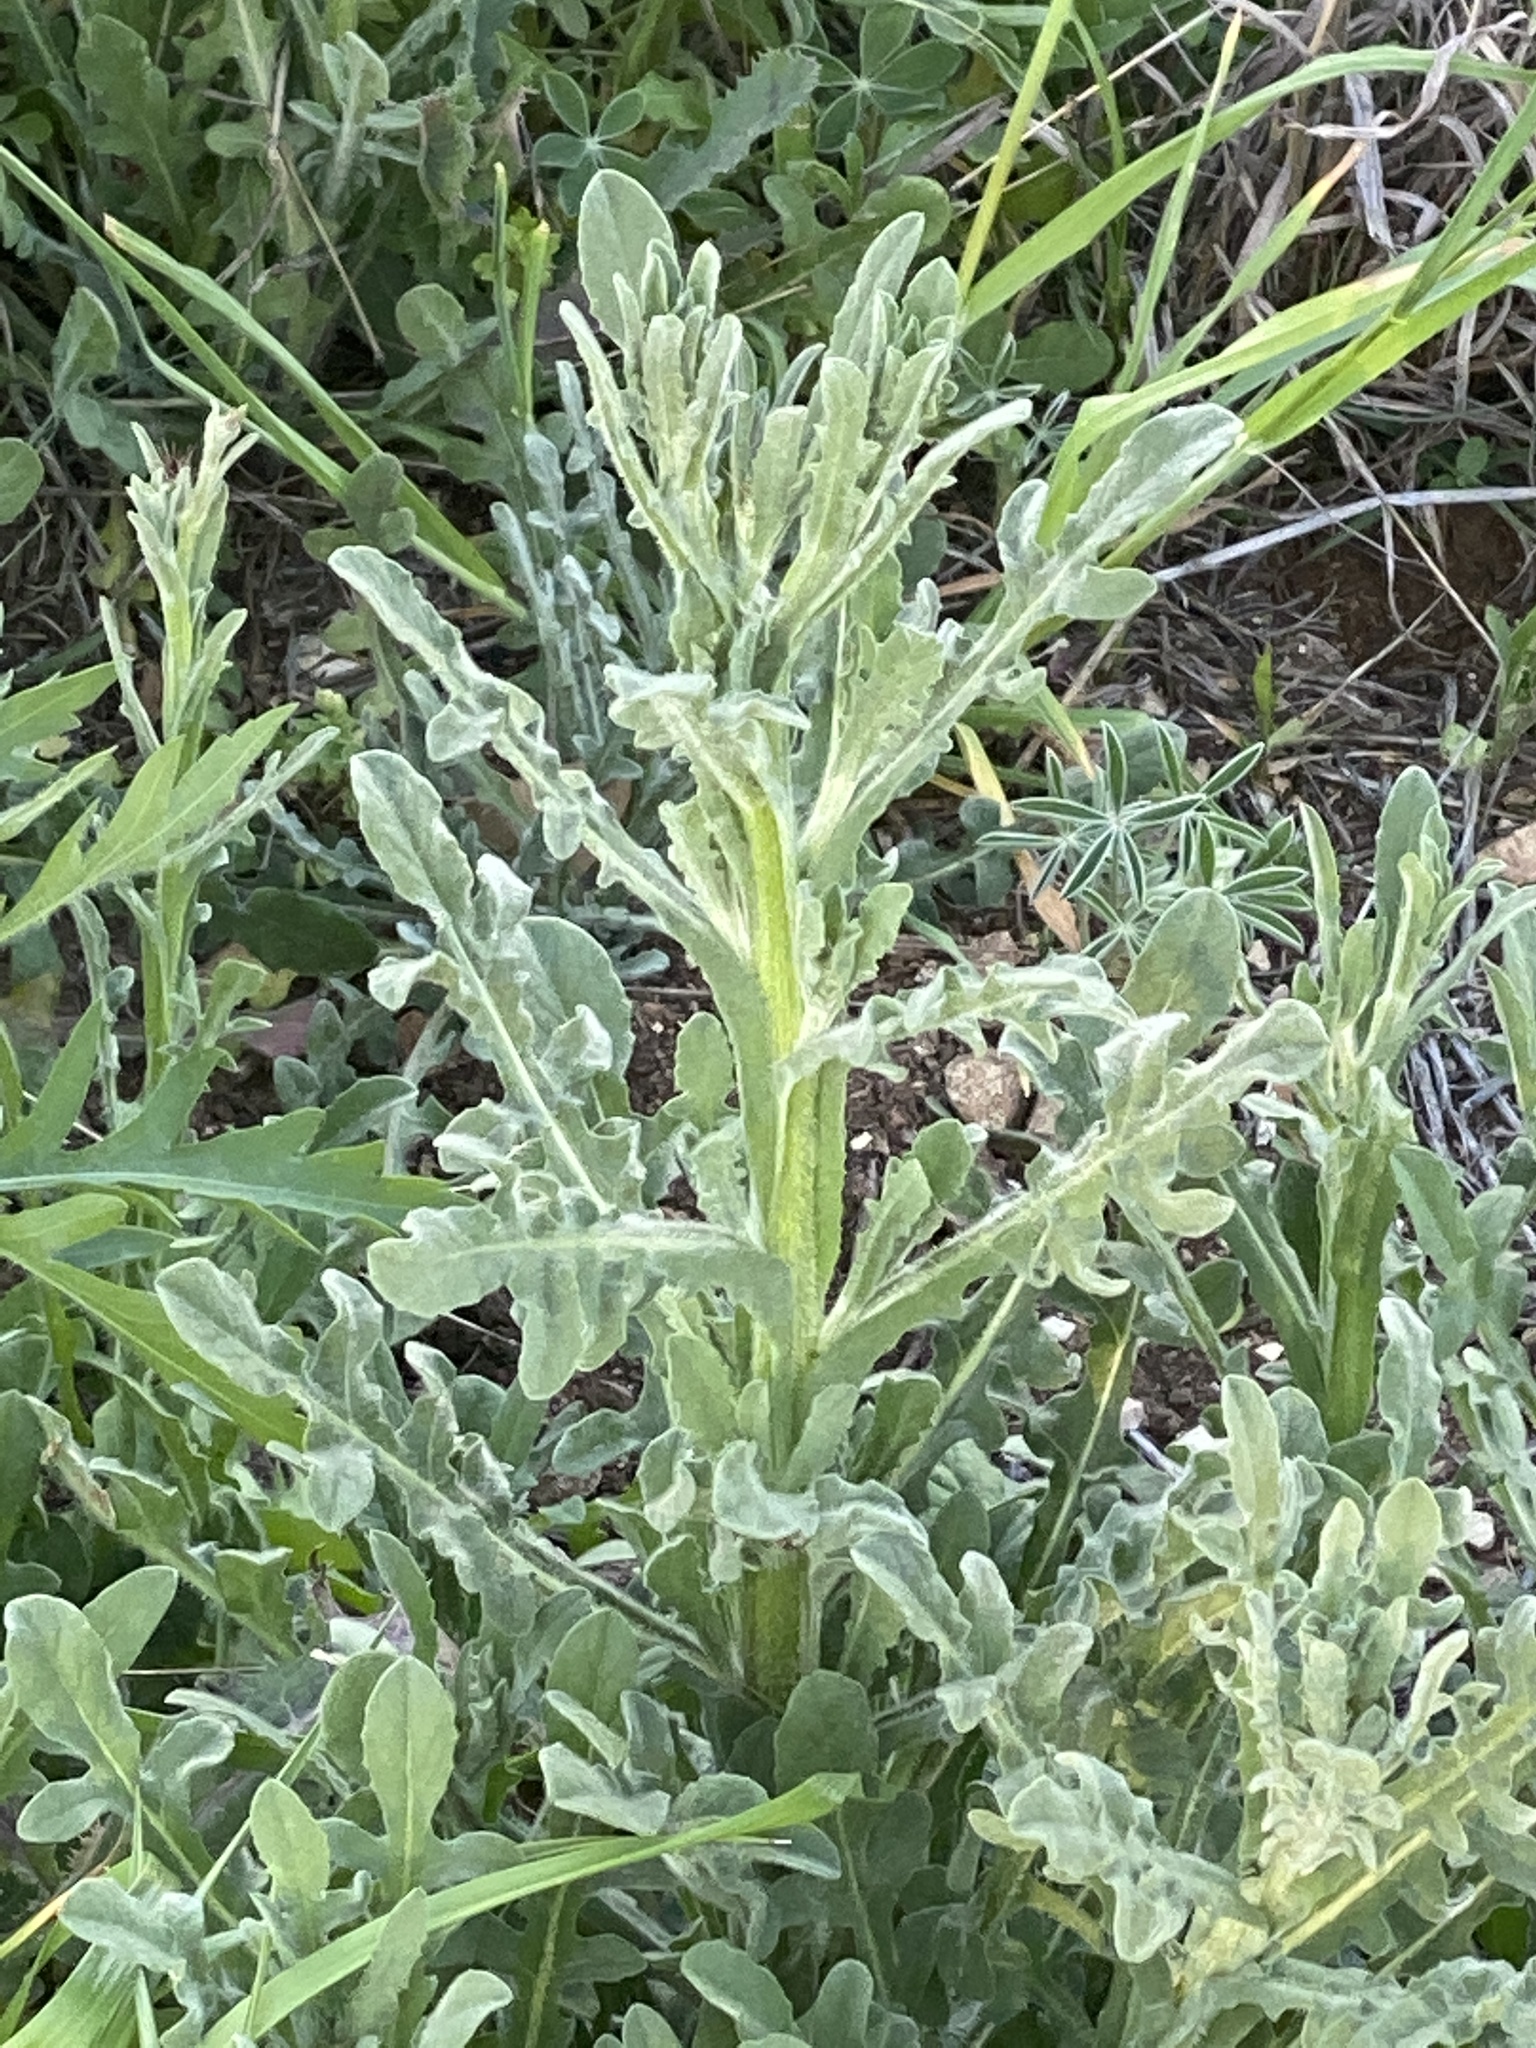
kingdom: Plantae
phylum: Tracheophyta
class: Magnoliopsida
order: Asterales
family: Asteraceae
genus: Centaurea
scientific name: Centaurea melitensis
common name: Maltese star-thistle
